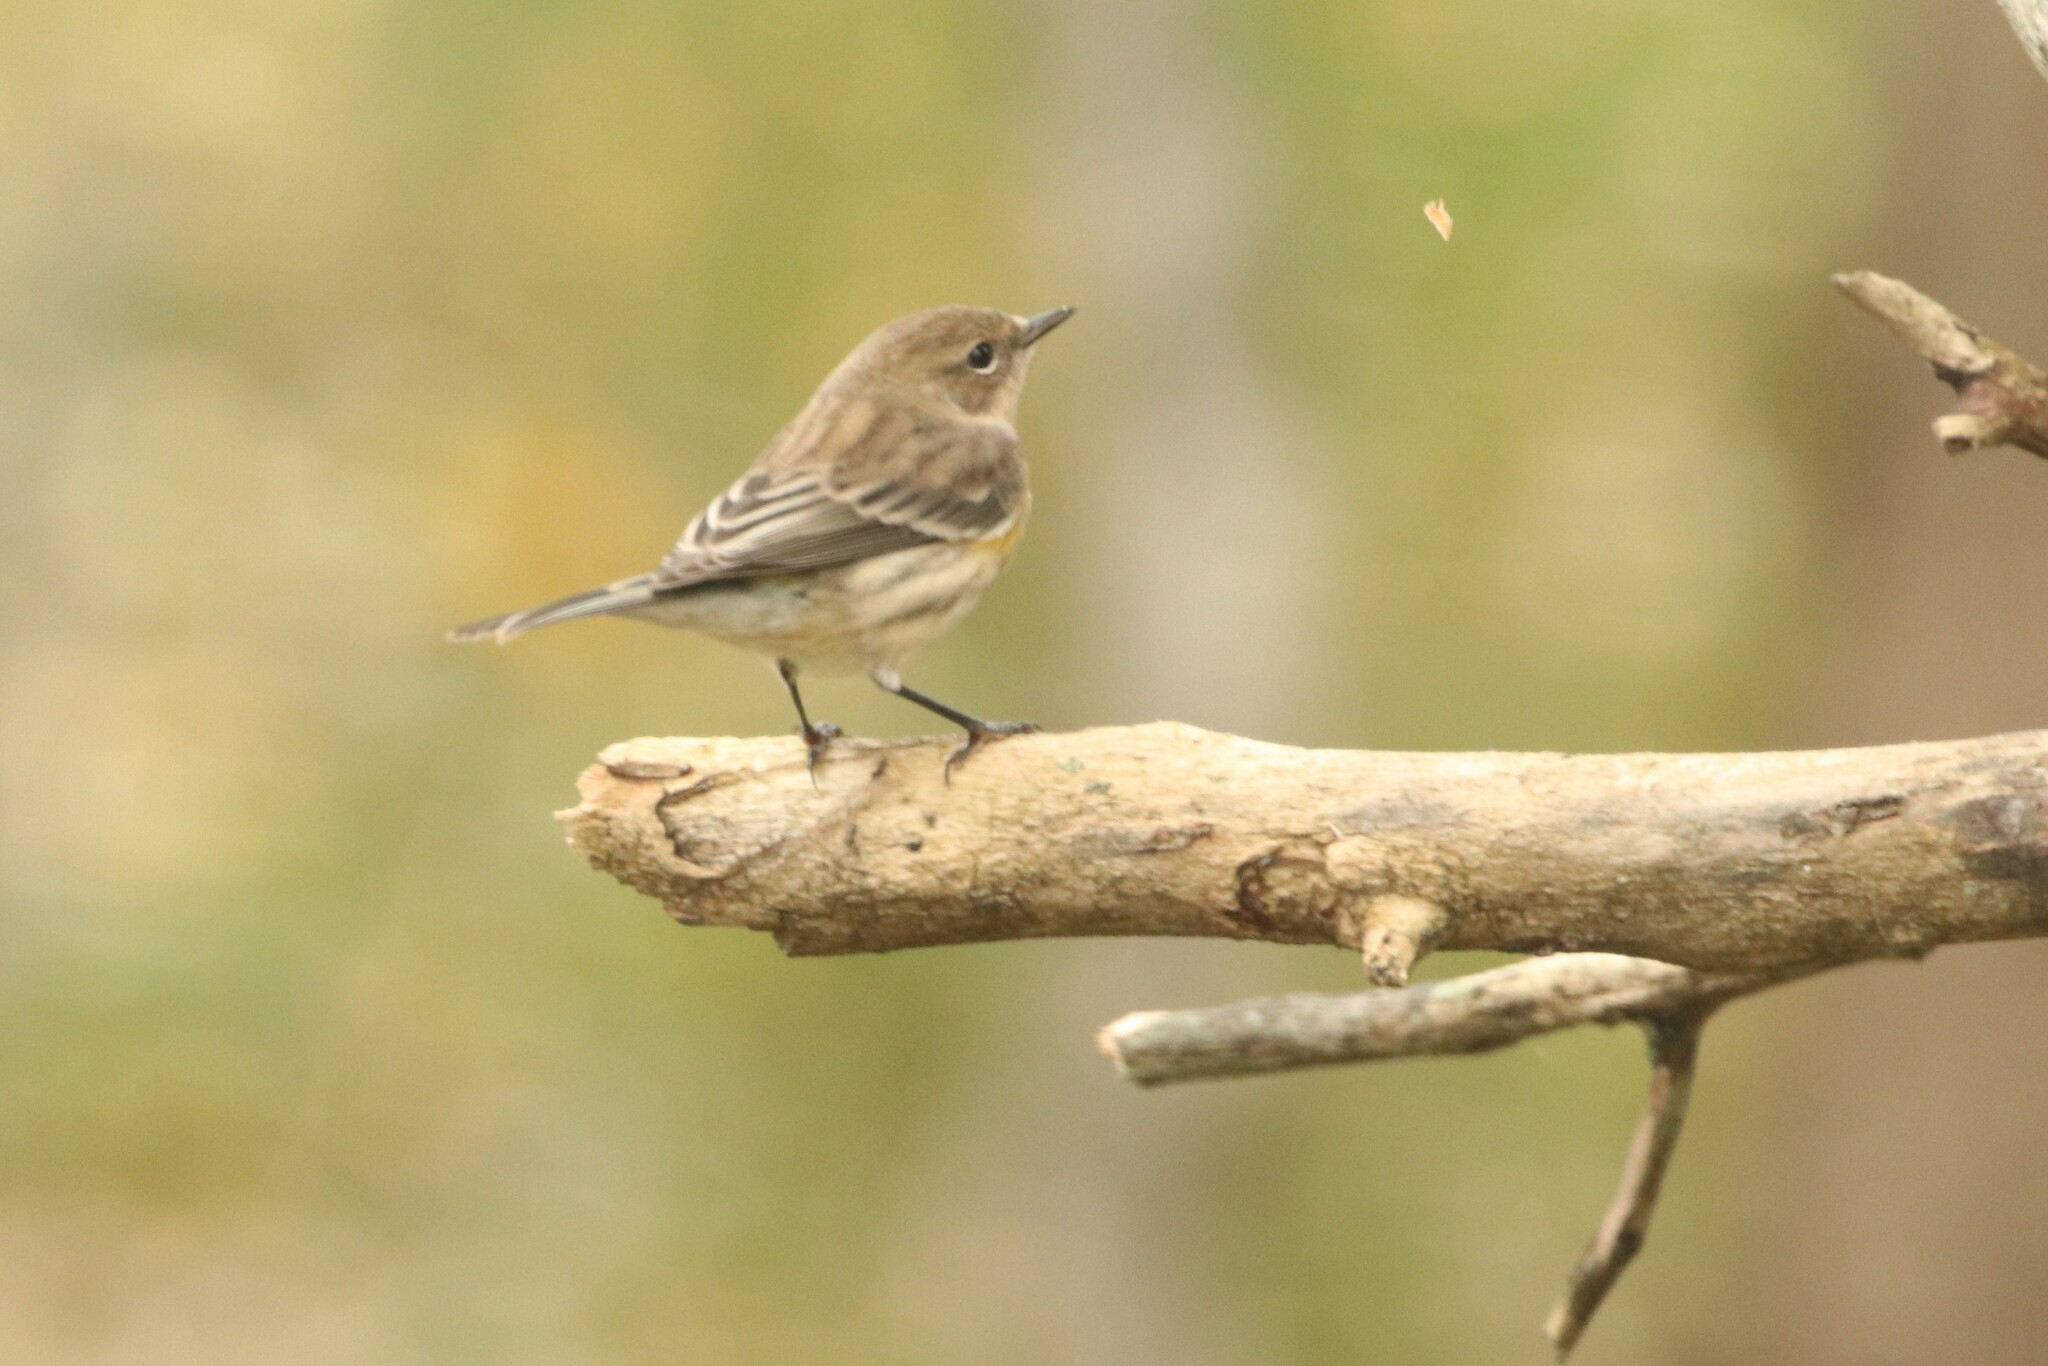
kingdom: Animalia
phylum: Chordata
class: Aves
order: Passeriformes
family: Parulidae
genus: Setophaga
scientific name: Setophaga coronata
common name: Myrtle warbler
